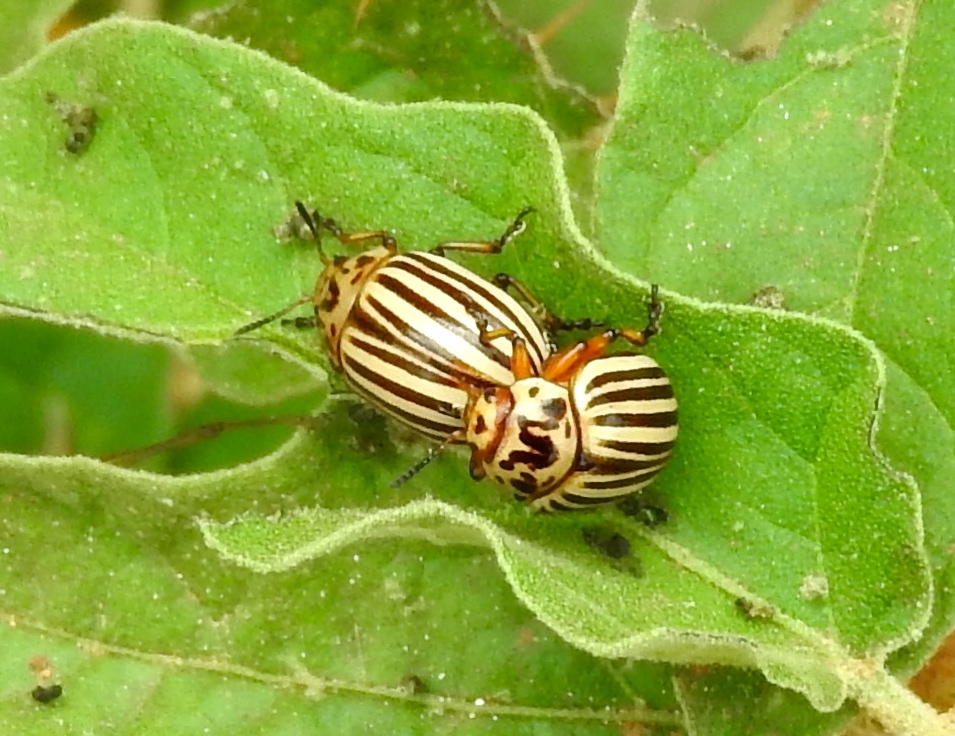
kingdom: Animalia
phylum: Arthropoda
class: Insecta
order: Coleoptera
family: Chrysomelidae
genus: Leptinotarsa
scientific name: Leptinotarsa decemlineata
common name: Colorado potato beetle
